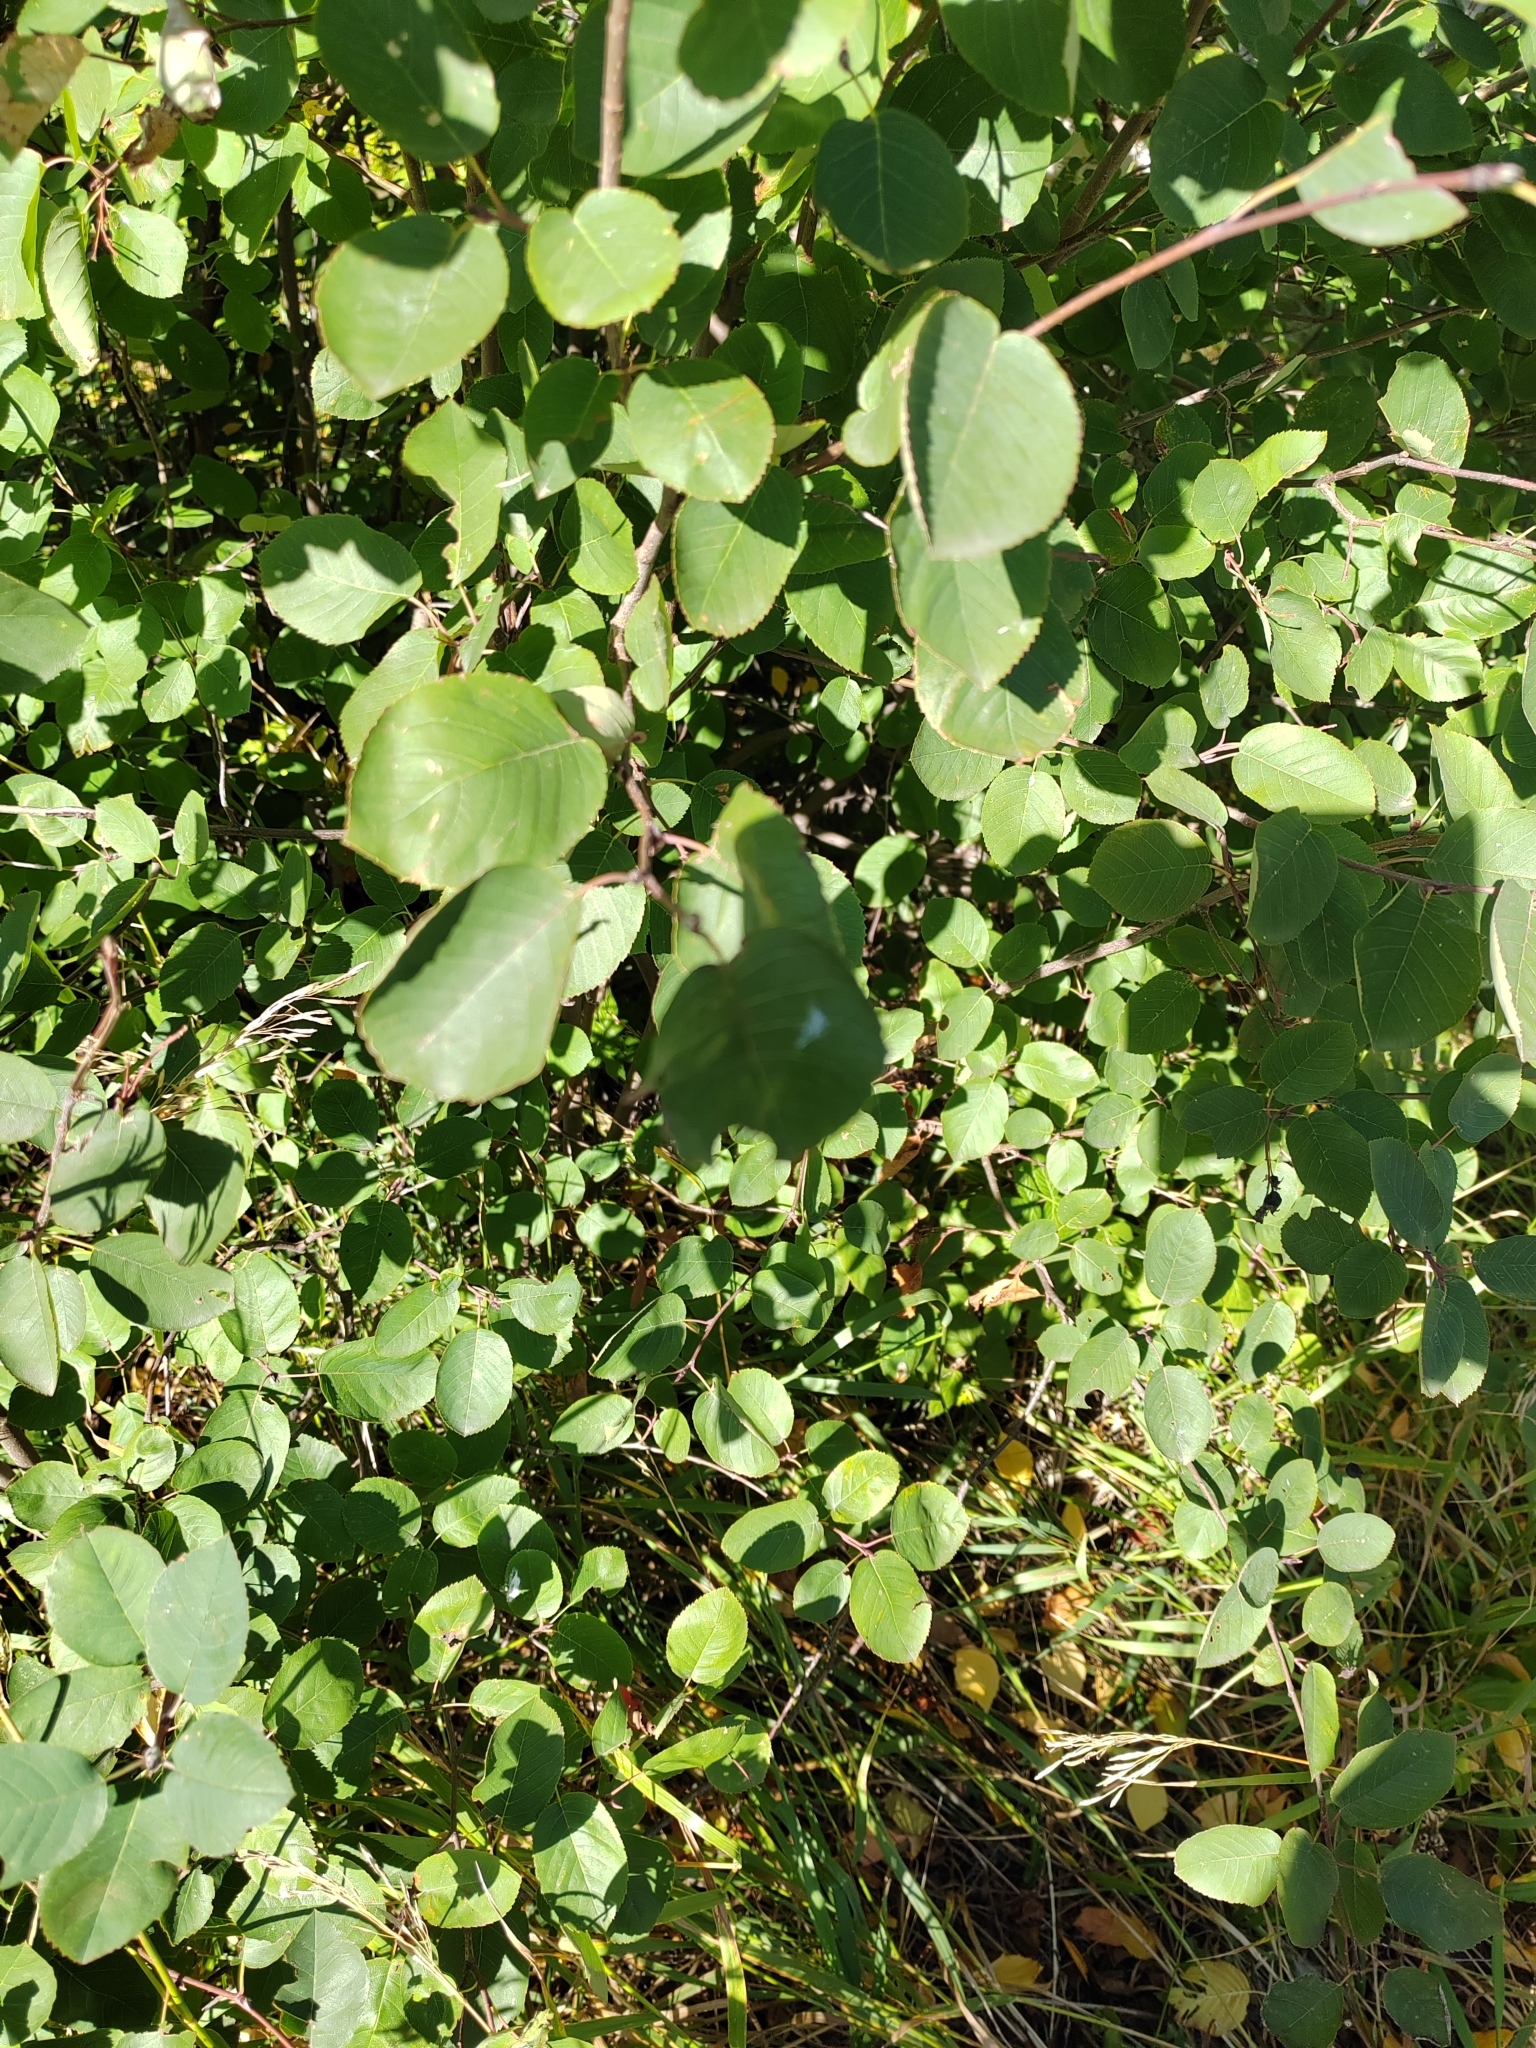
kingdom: Plantae
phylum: Tracheophyta
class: Magnoliopsida
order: Rosales
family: Rosaceae
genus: Amelanchier
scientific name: Amelanchier
